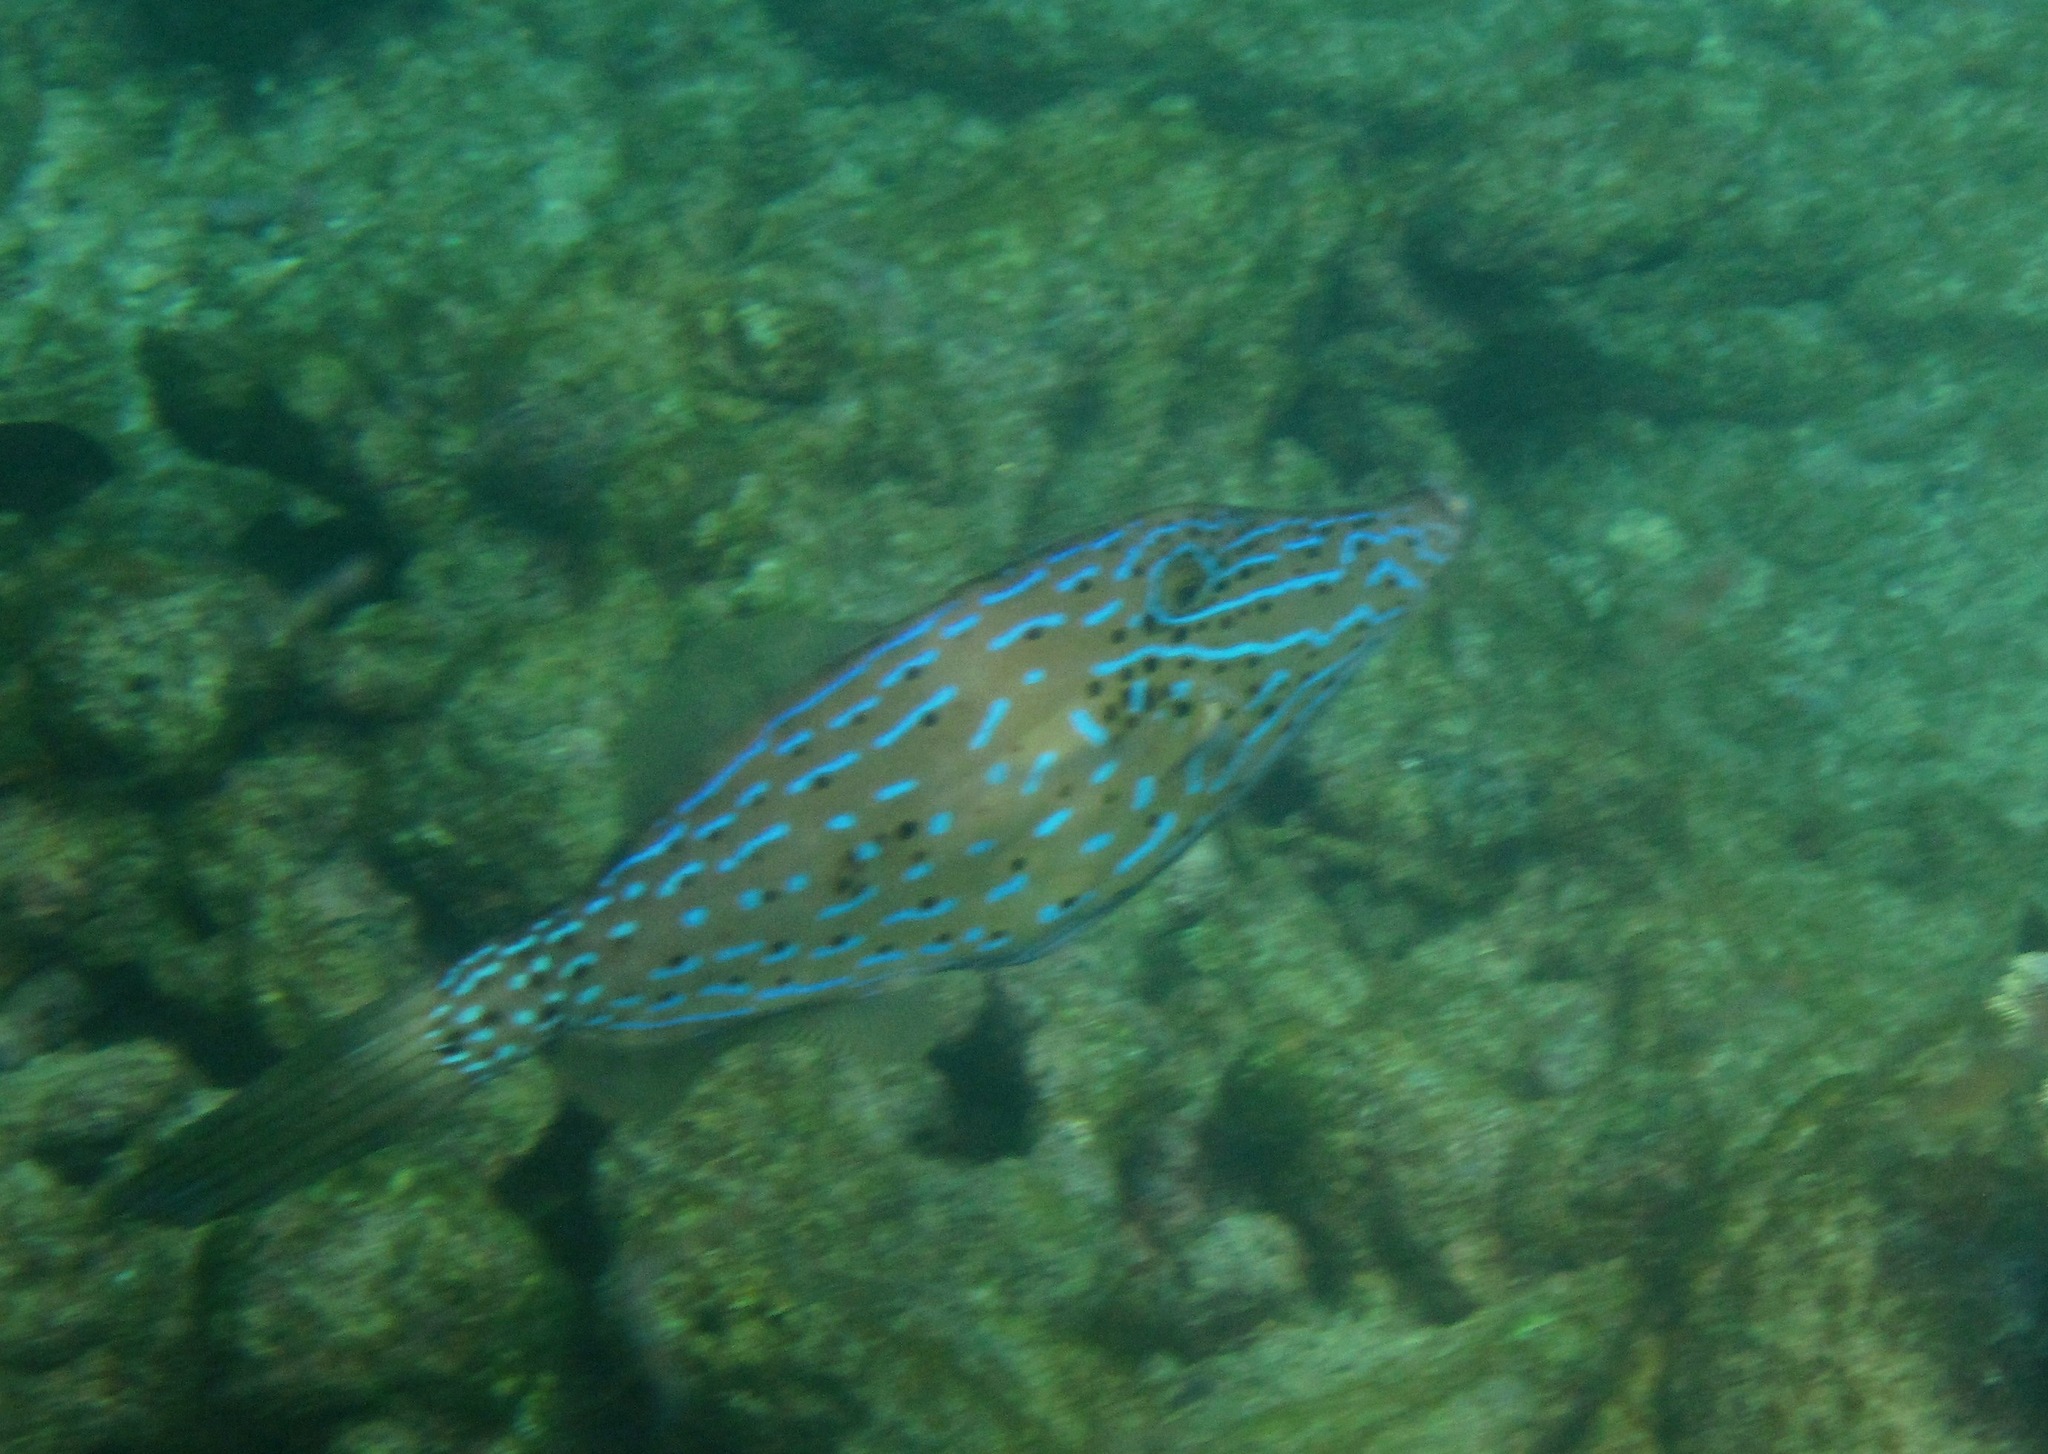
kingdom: Animalia
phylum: Chordata
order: Tetraodontiformes
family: Monacanthidae
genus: Aluterus
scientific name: Aluterus scriptus
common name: Scribbled leatherjacket filefish
